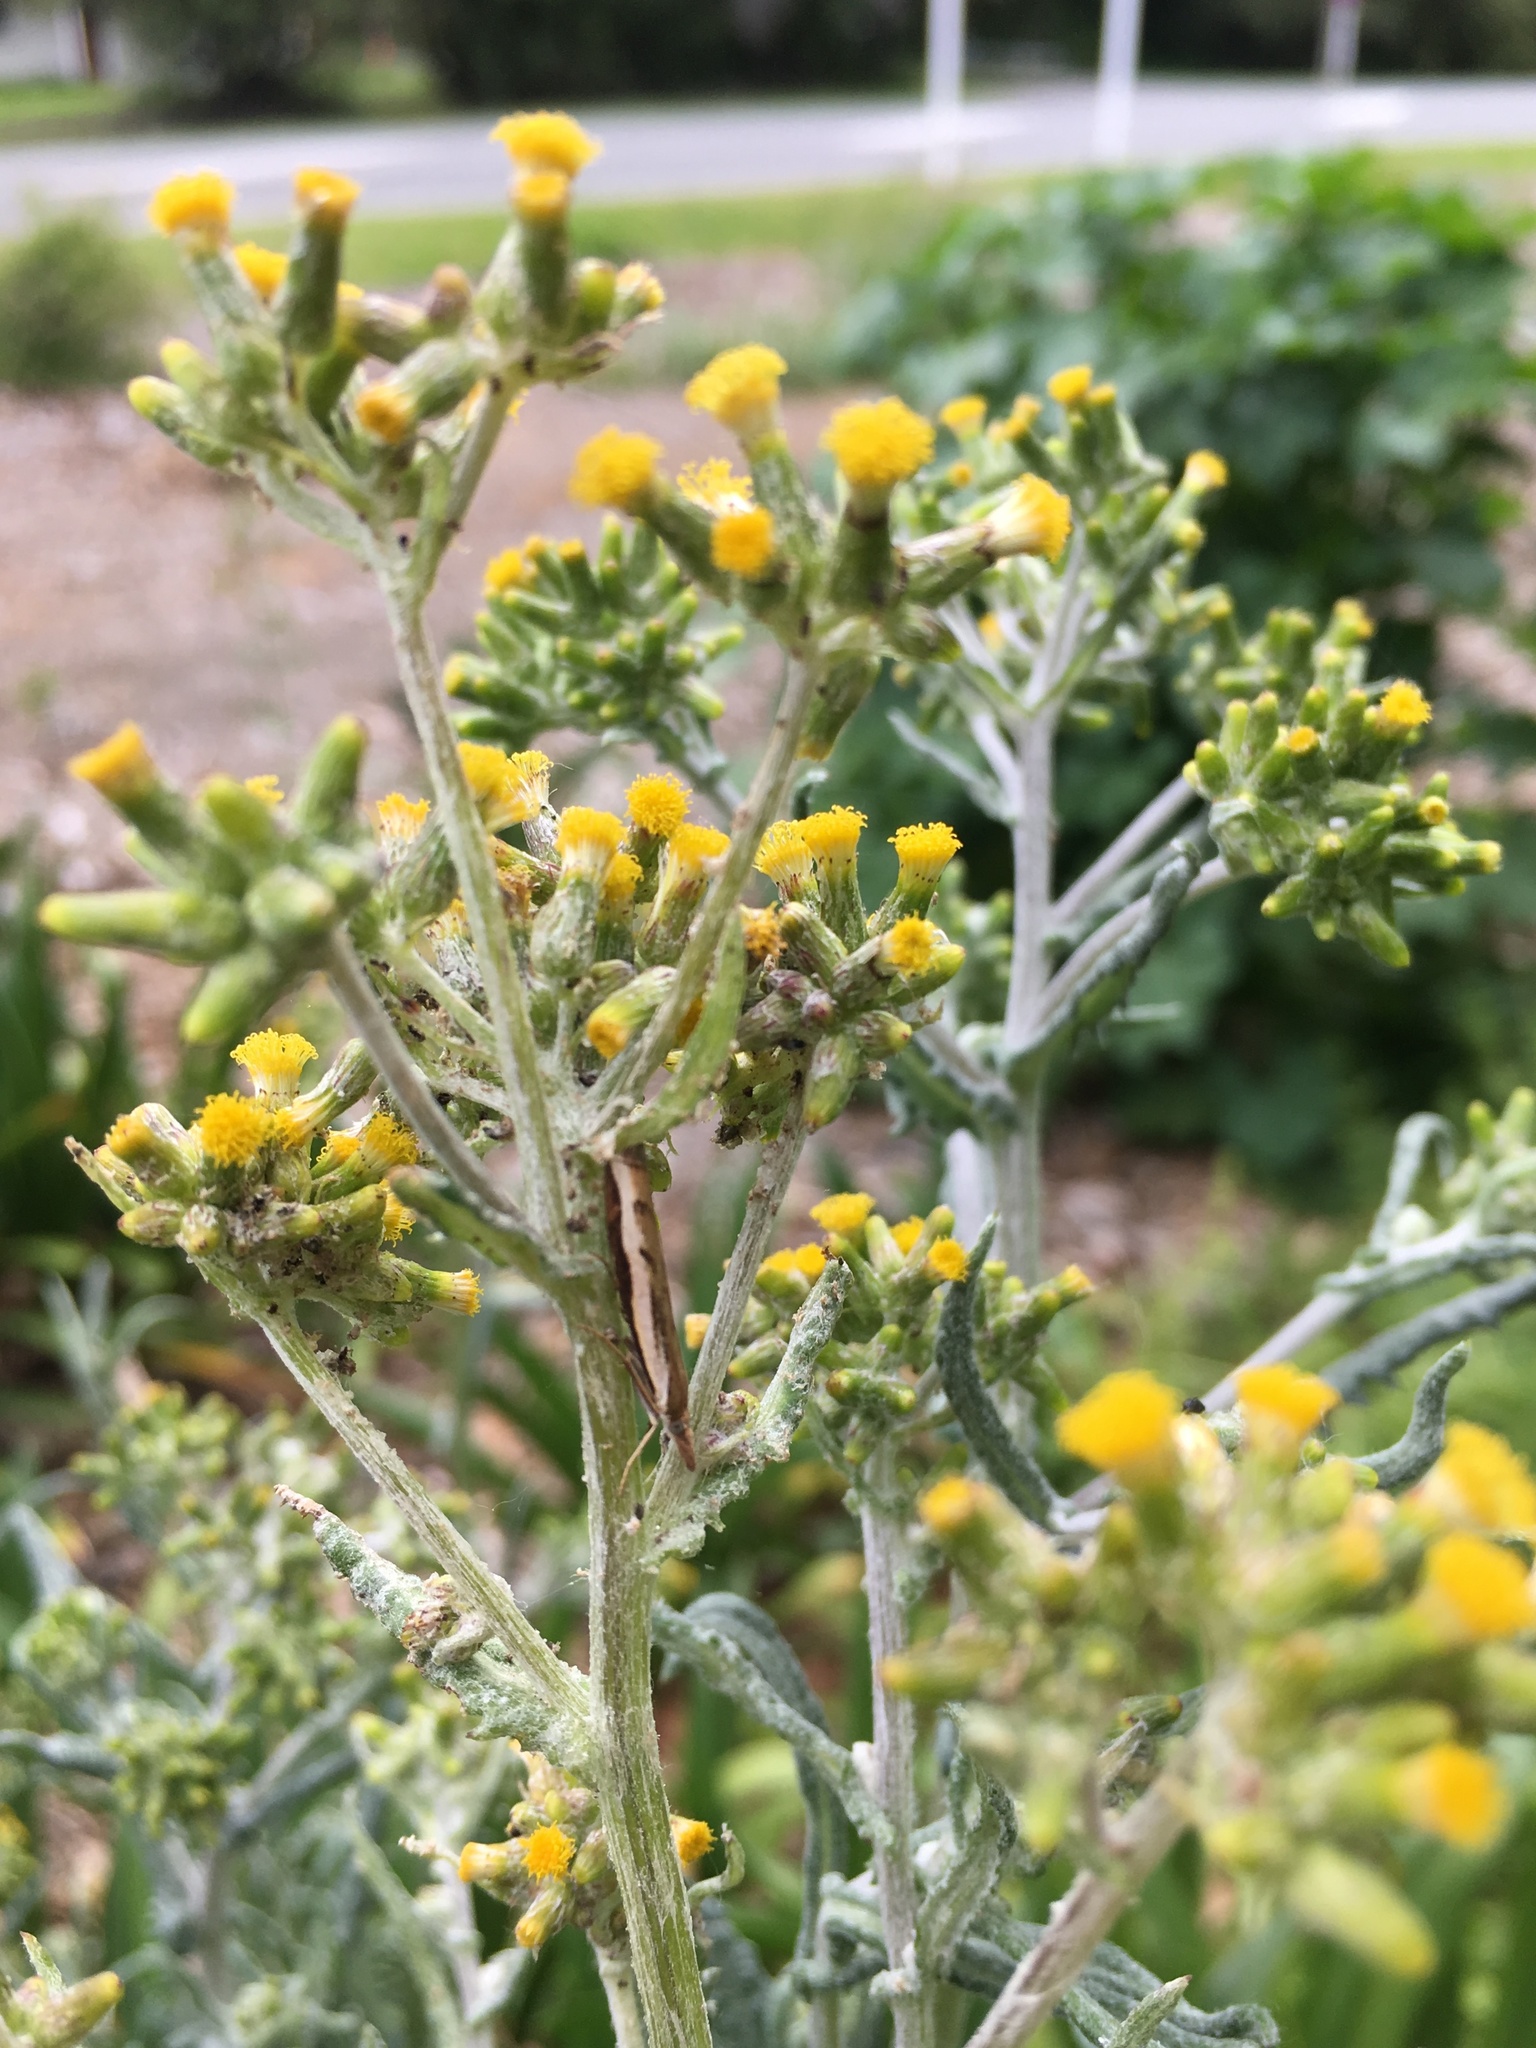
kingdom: Animalia
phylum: Arthropoda
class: Insecta
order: Lepidoptera
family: Crambidae
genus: Orocrambus
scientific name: Orocrambus flexuosellus
